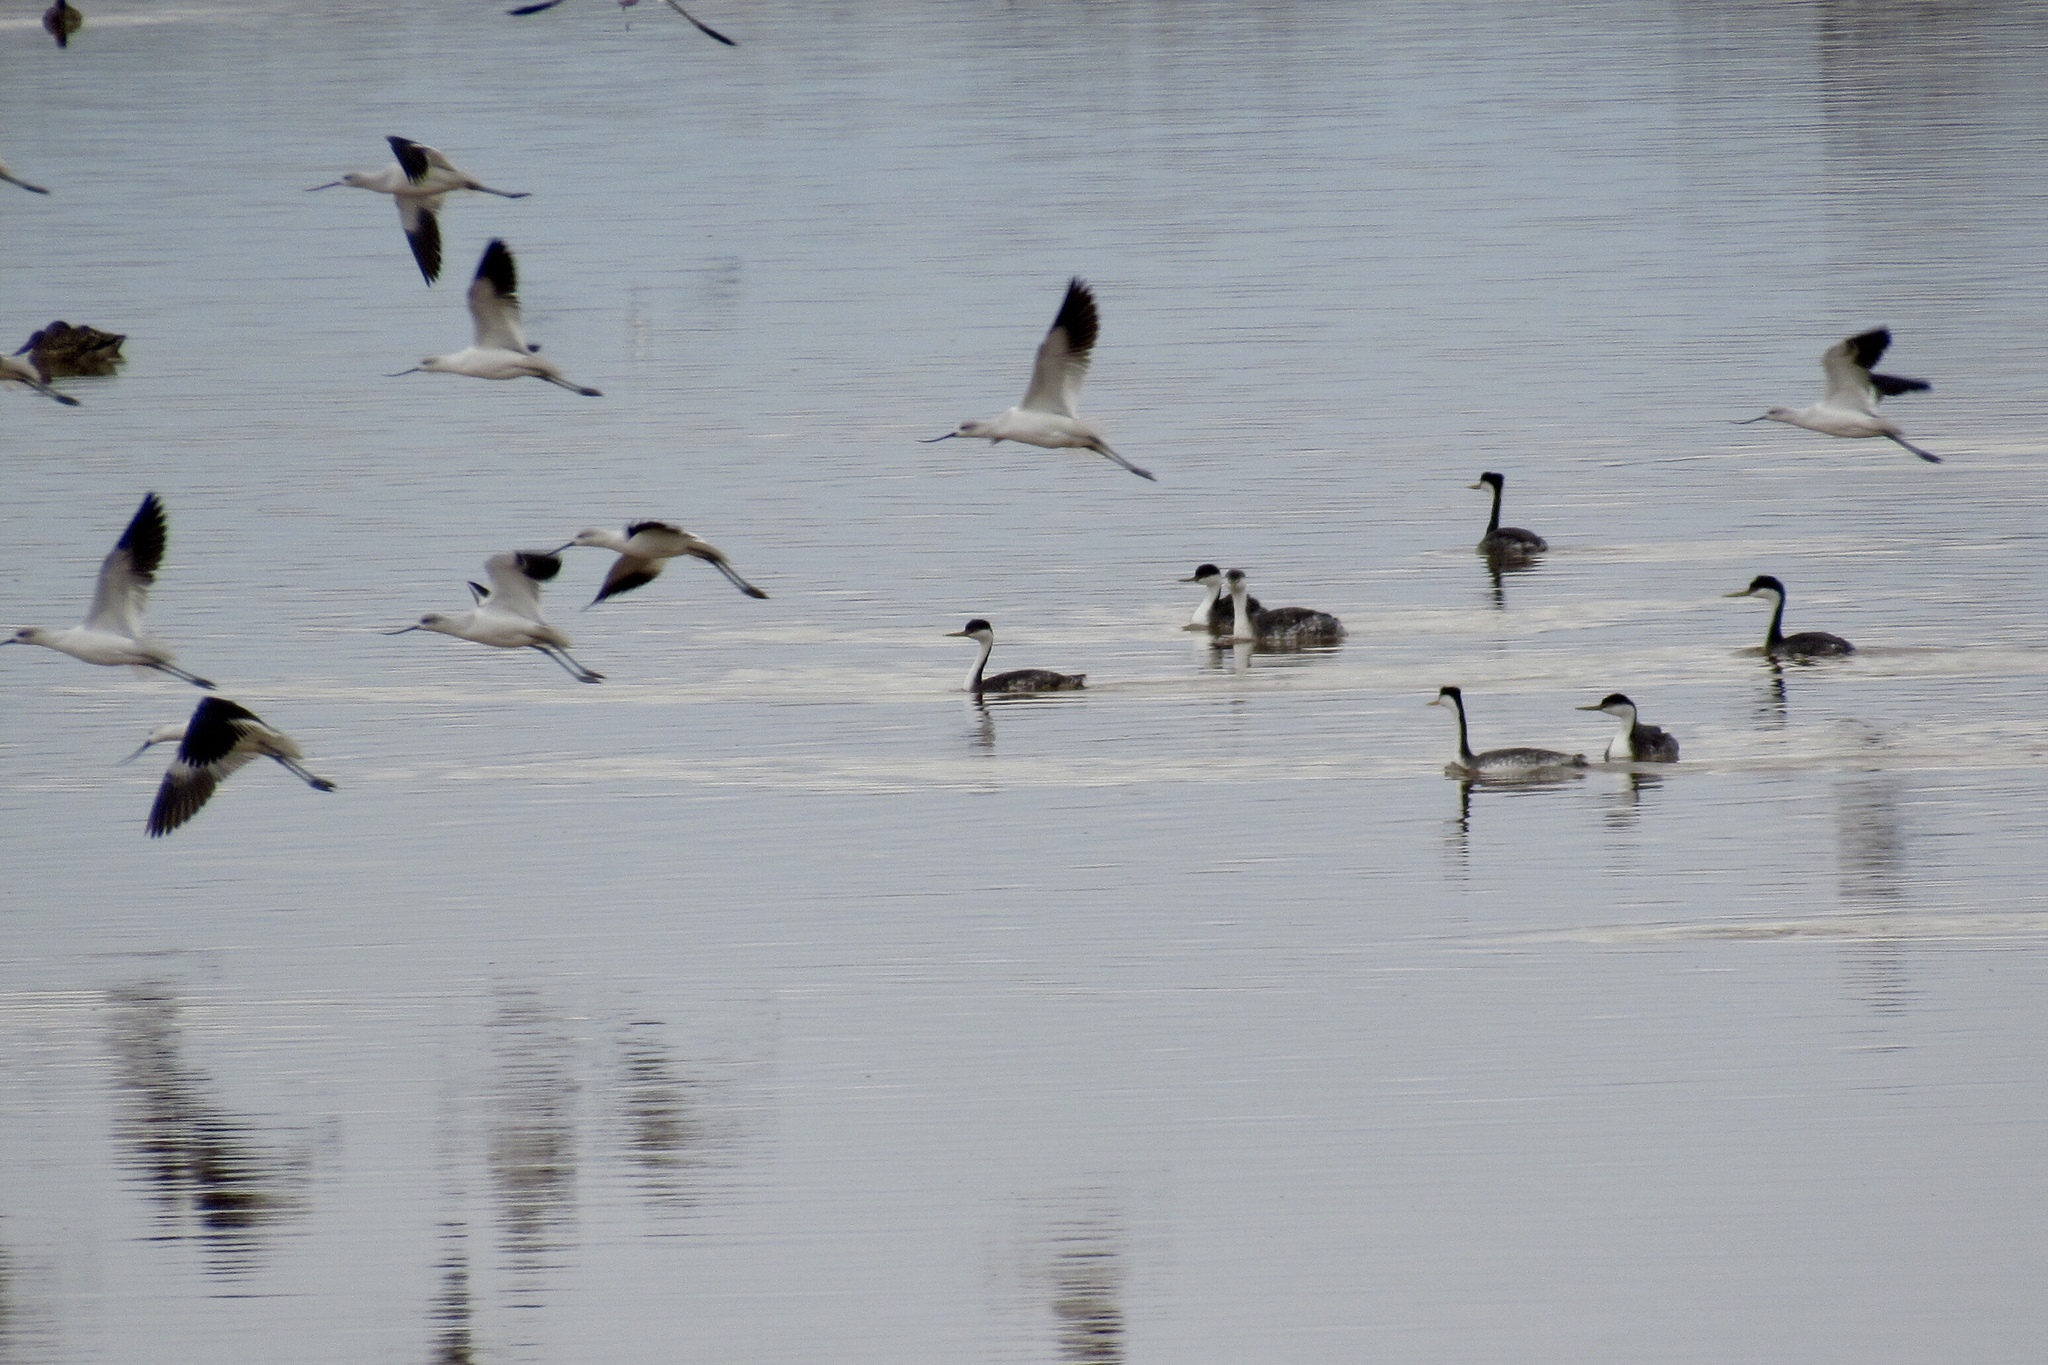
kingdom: Animalia
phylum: Chordata
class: Aves
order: Podicipediformes
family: Podicipedidae
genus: Aechmophorus
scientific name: Aechmophorus occidentalis
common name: Western grebe
